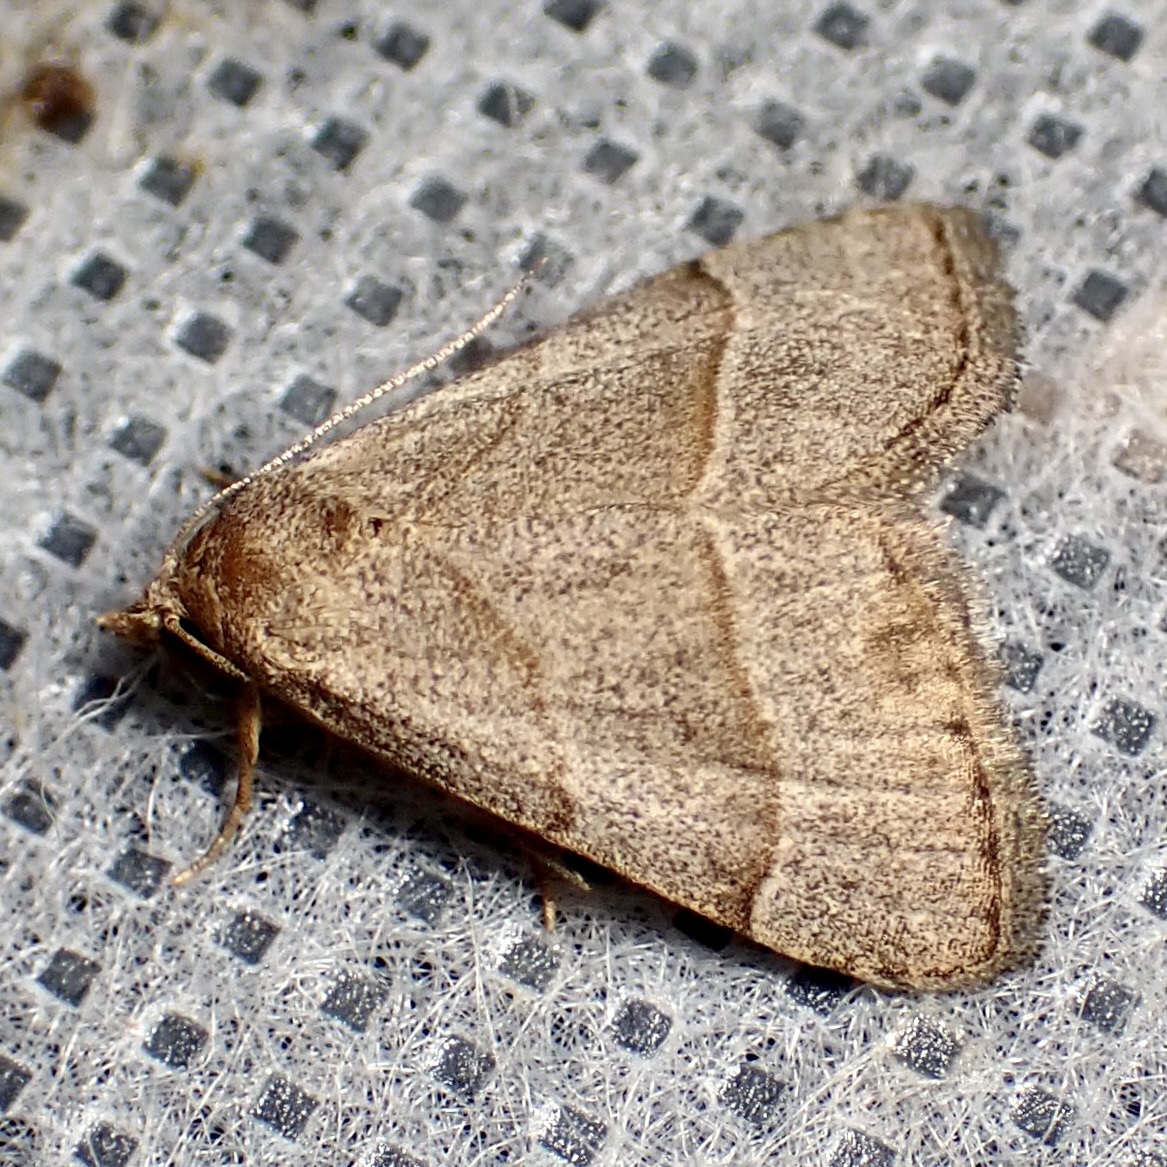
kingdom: Animalia
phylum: Arthropoda
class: Insecta
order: Lepidoptera
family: Erebidae
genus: Zelicodes
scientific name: Zelicodes linearis
